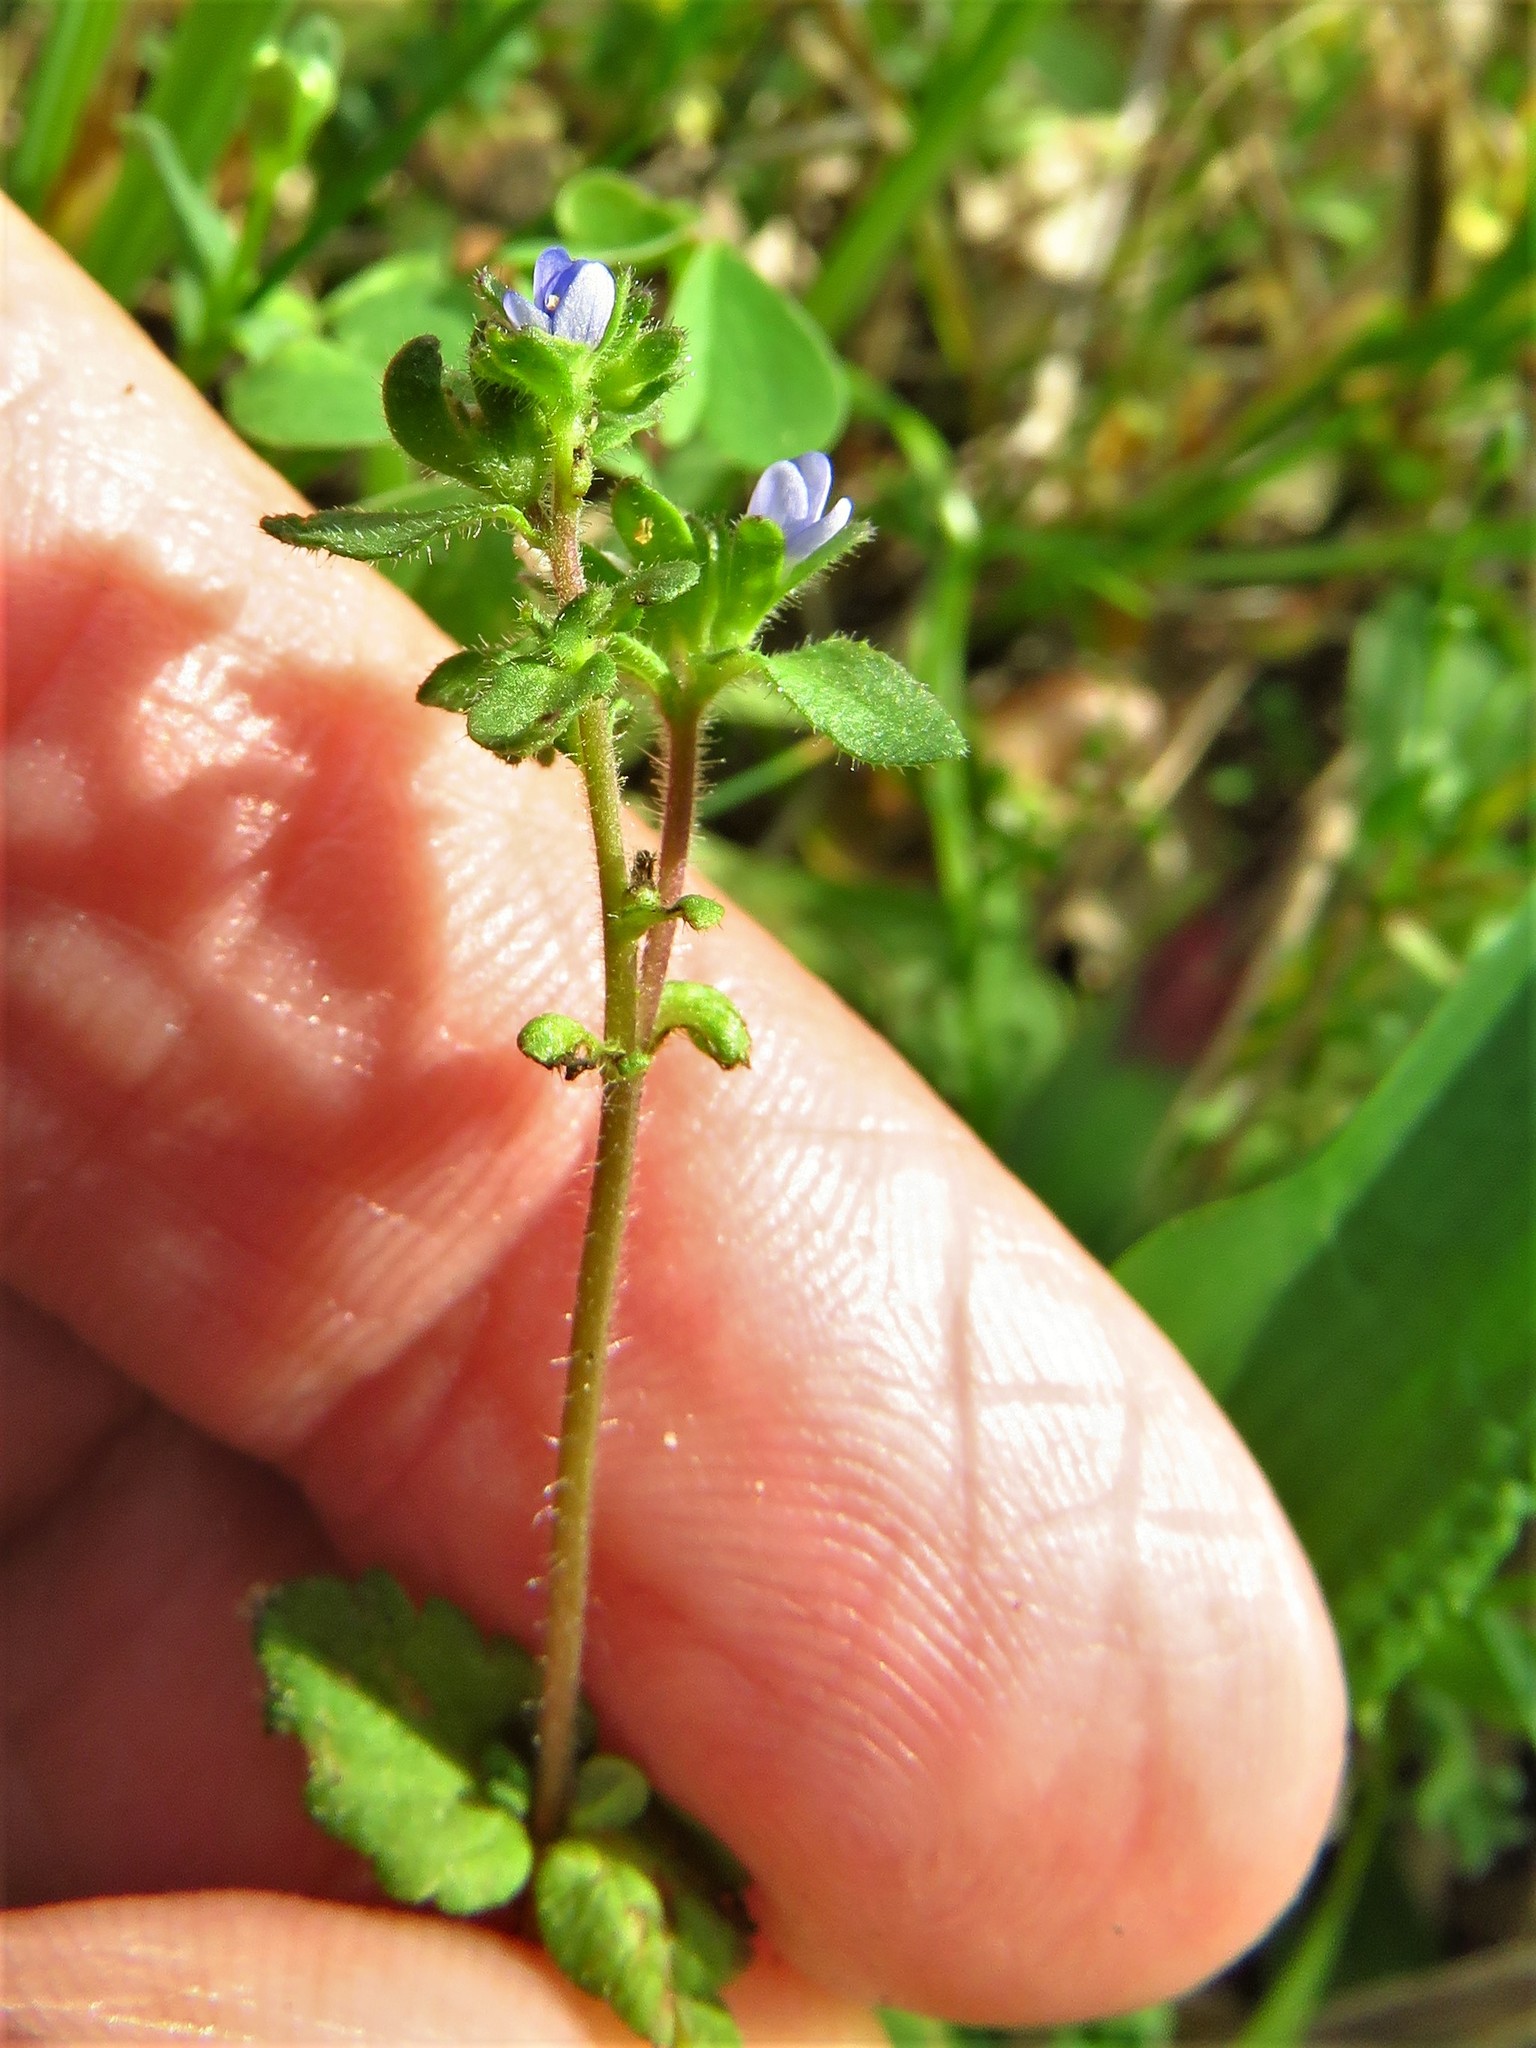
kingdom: Plantae
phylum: Tracheophyta
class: Magnoliopsida
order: Lamiales
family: Plantaginaceae
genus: Veronica
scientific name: Veronica arvensis
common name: Corn speedwell
